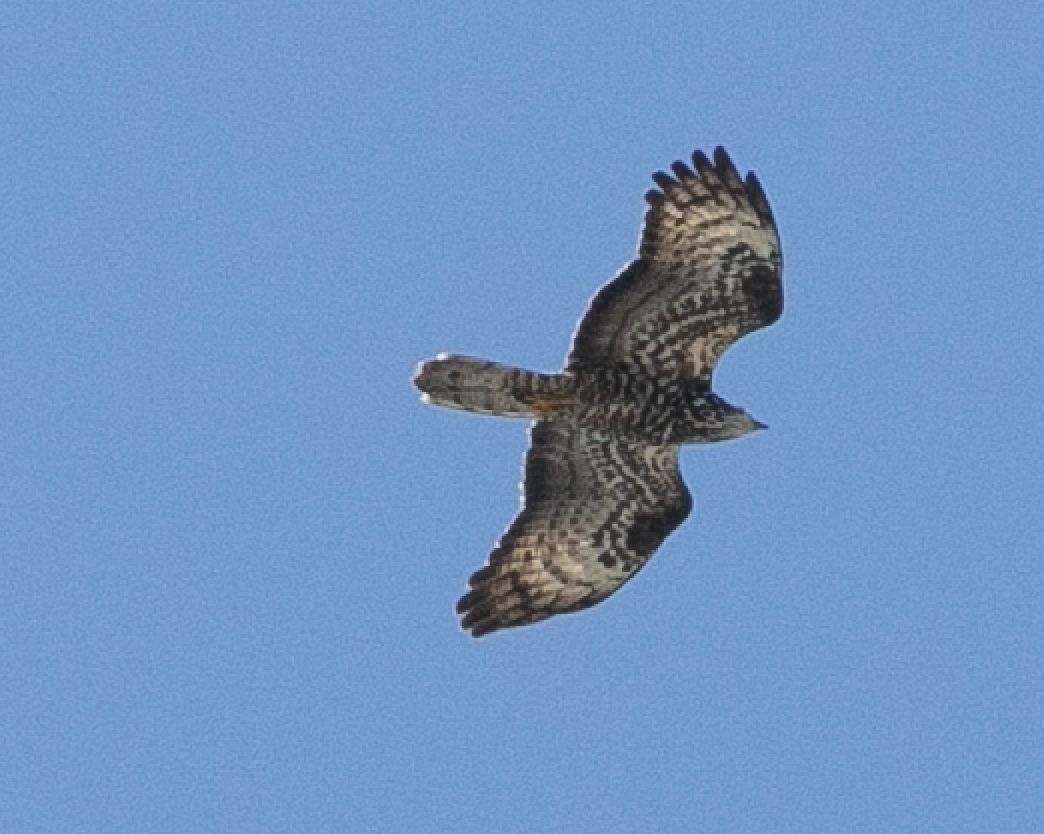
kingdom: Animalia
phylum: Chordata
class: Aves
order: Accipitriformes
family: Accipitridae
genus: Pernis
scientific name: Pernis apivorus
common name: European honey buzzard
